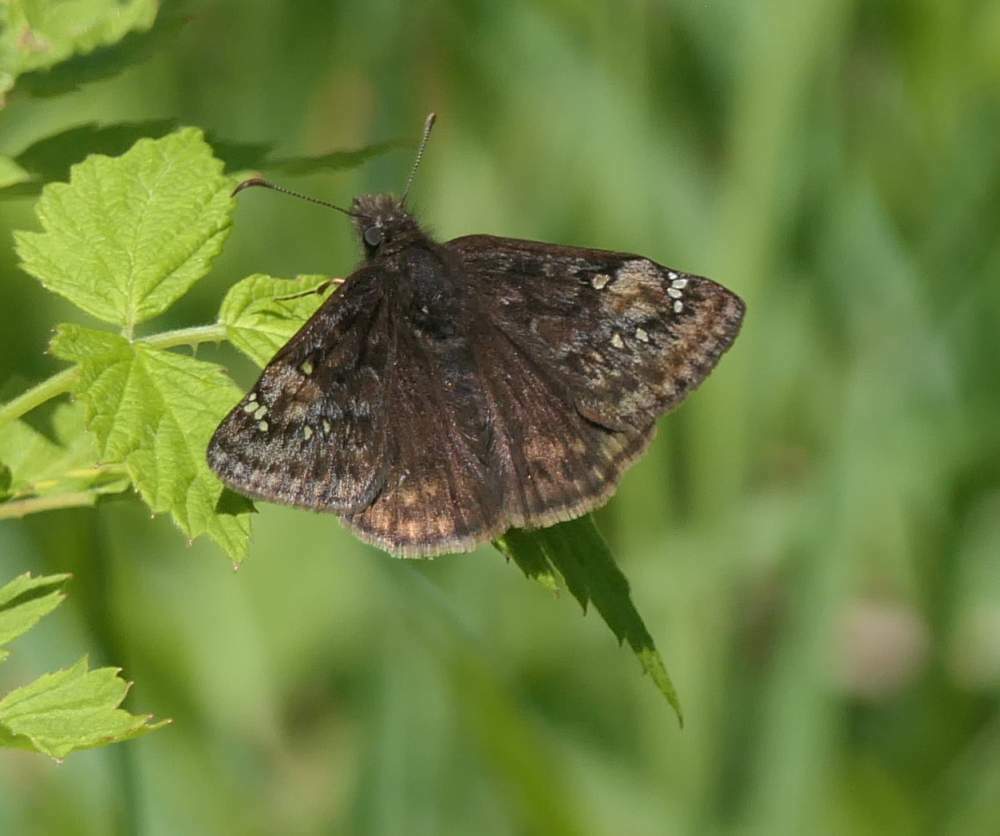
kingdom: Animalia
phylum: Arthropoda
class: Insecta
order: Lepidoptera
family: Hesperiidae
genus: Erynnis
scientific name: Erynnis juvenalis
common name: Juvenal's duskywing
